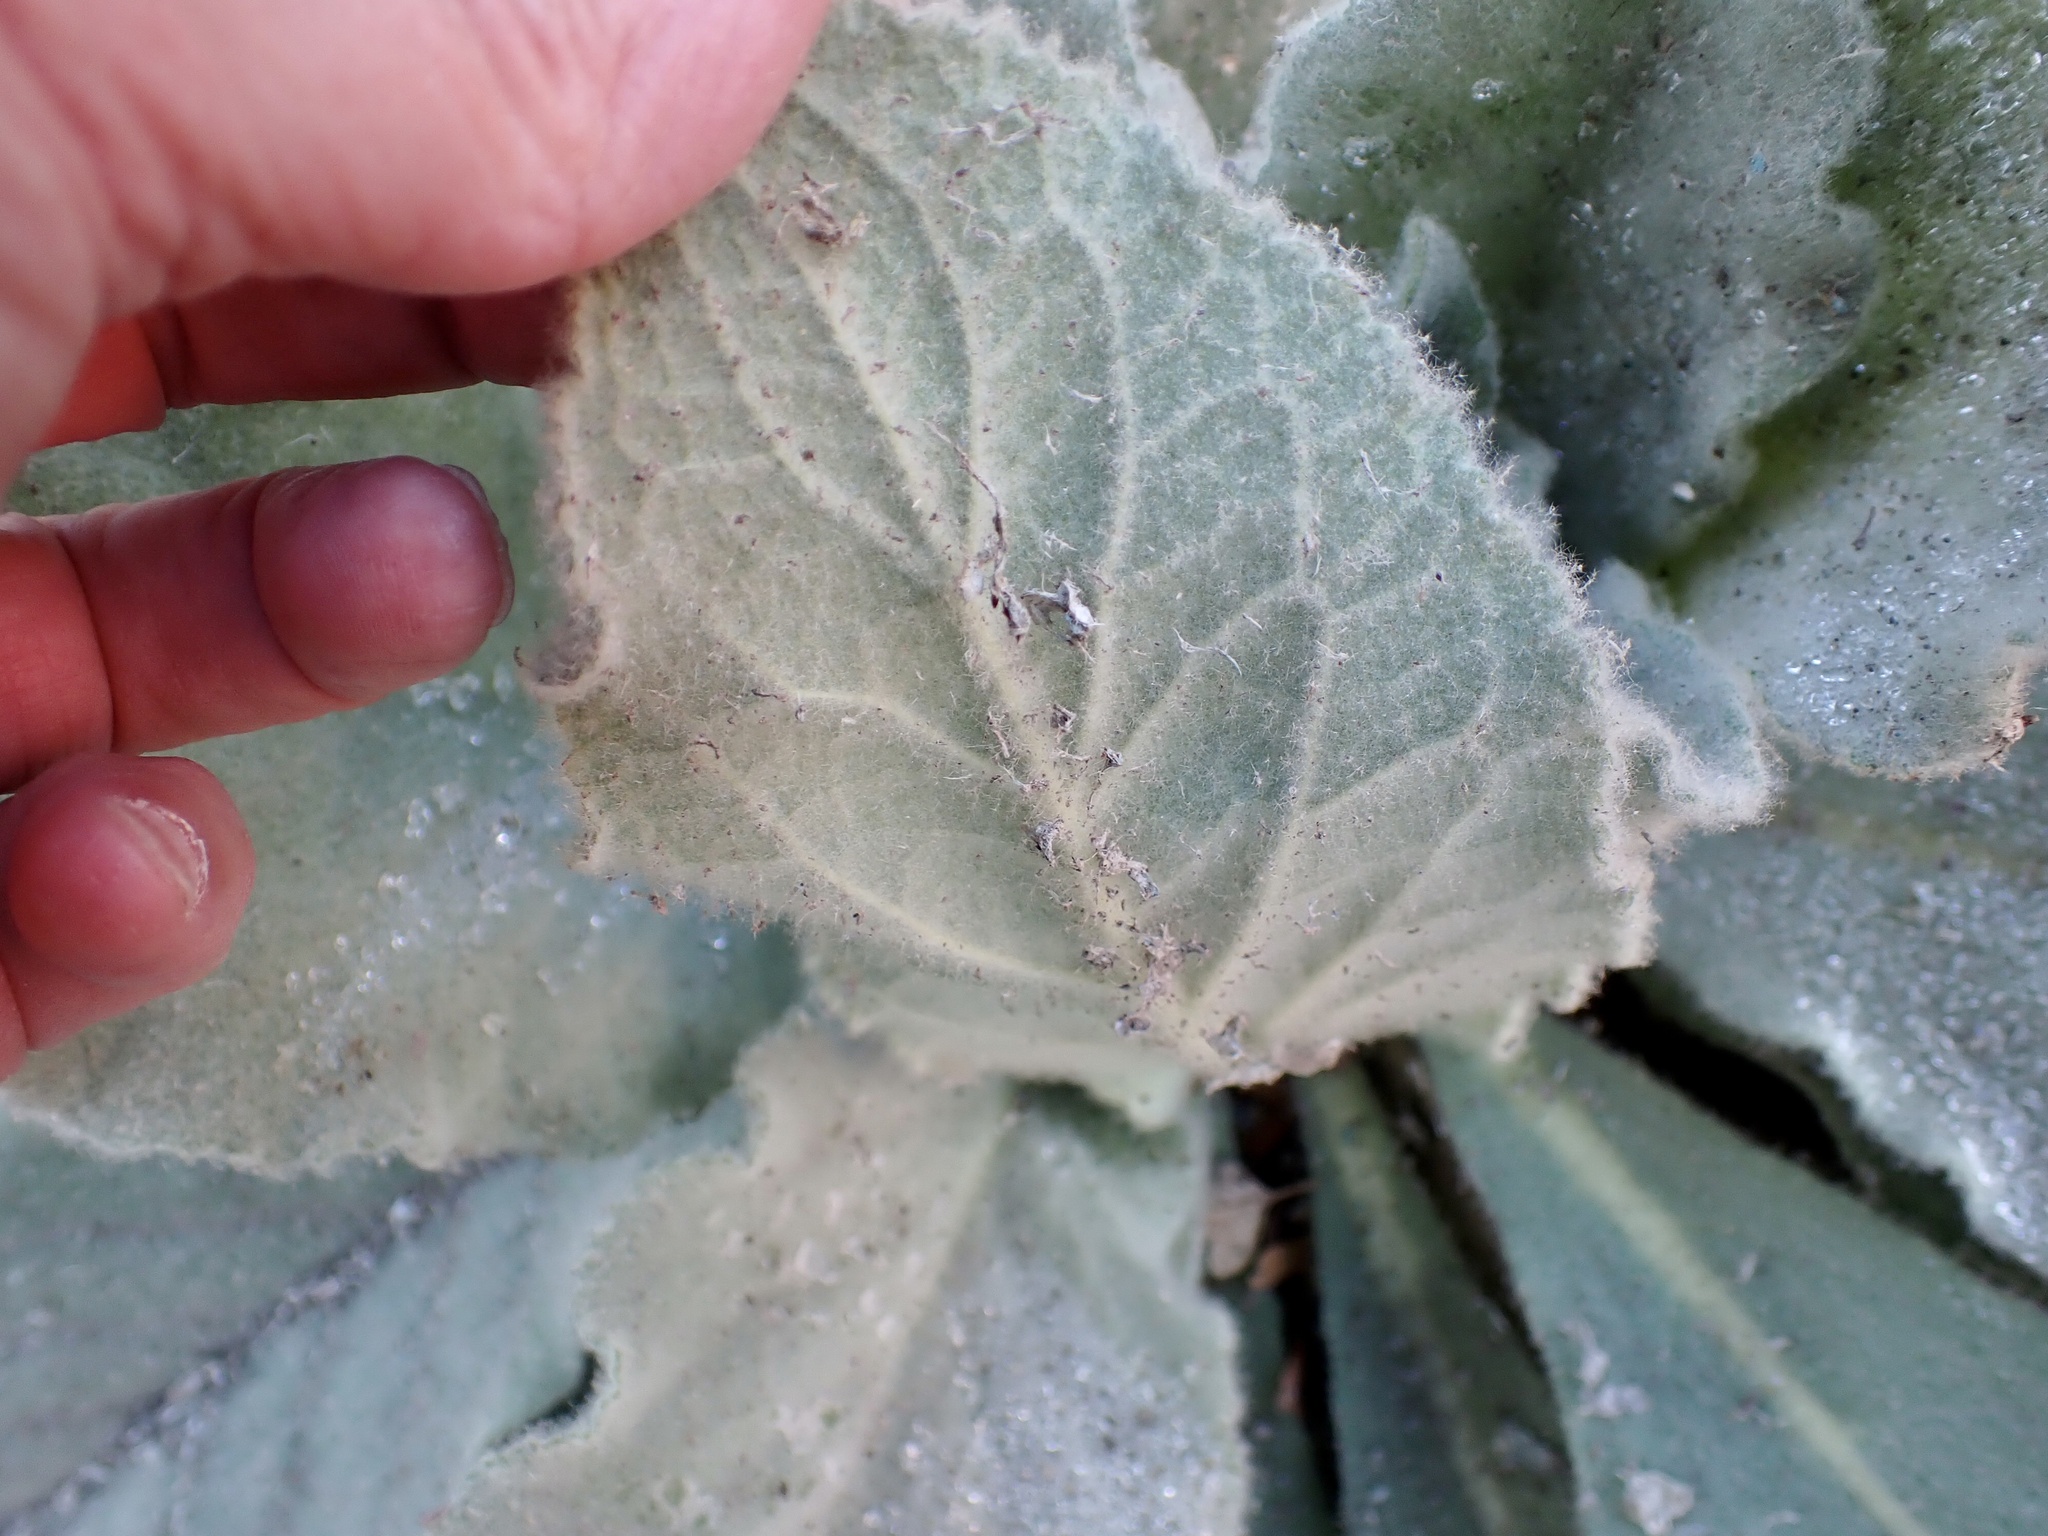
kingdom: Plantae
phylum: Tracheophyta
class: Magnoliopsida
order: Lamiales
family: Scrophulariaceae
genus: Verbascum
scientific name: Verbascum thapsus
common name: Common mullein
